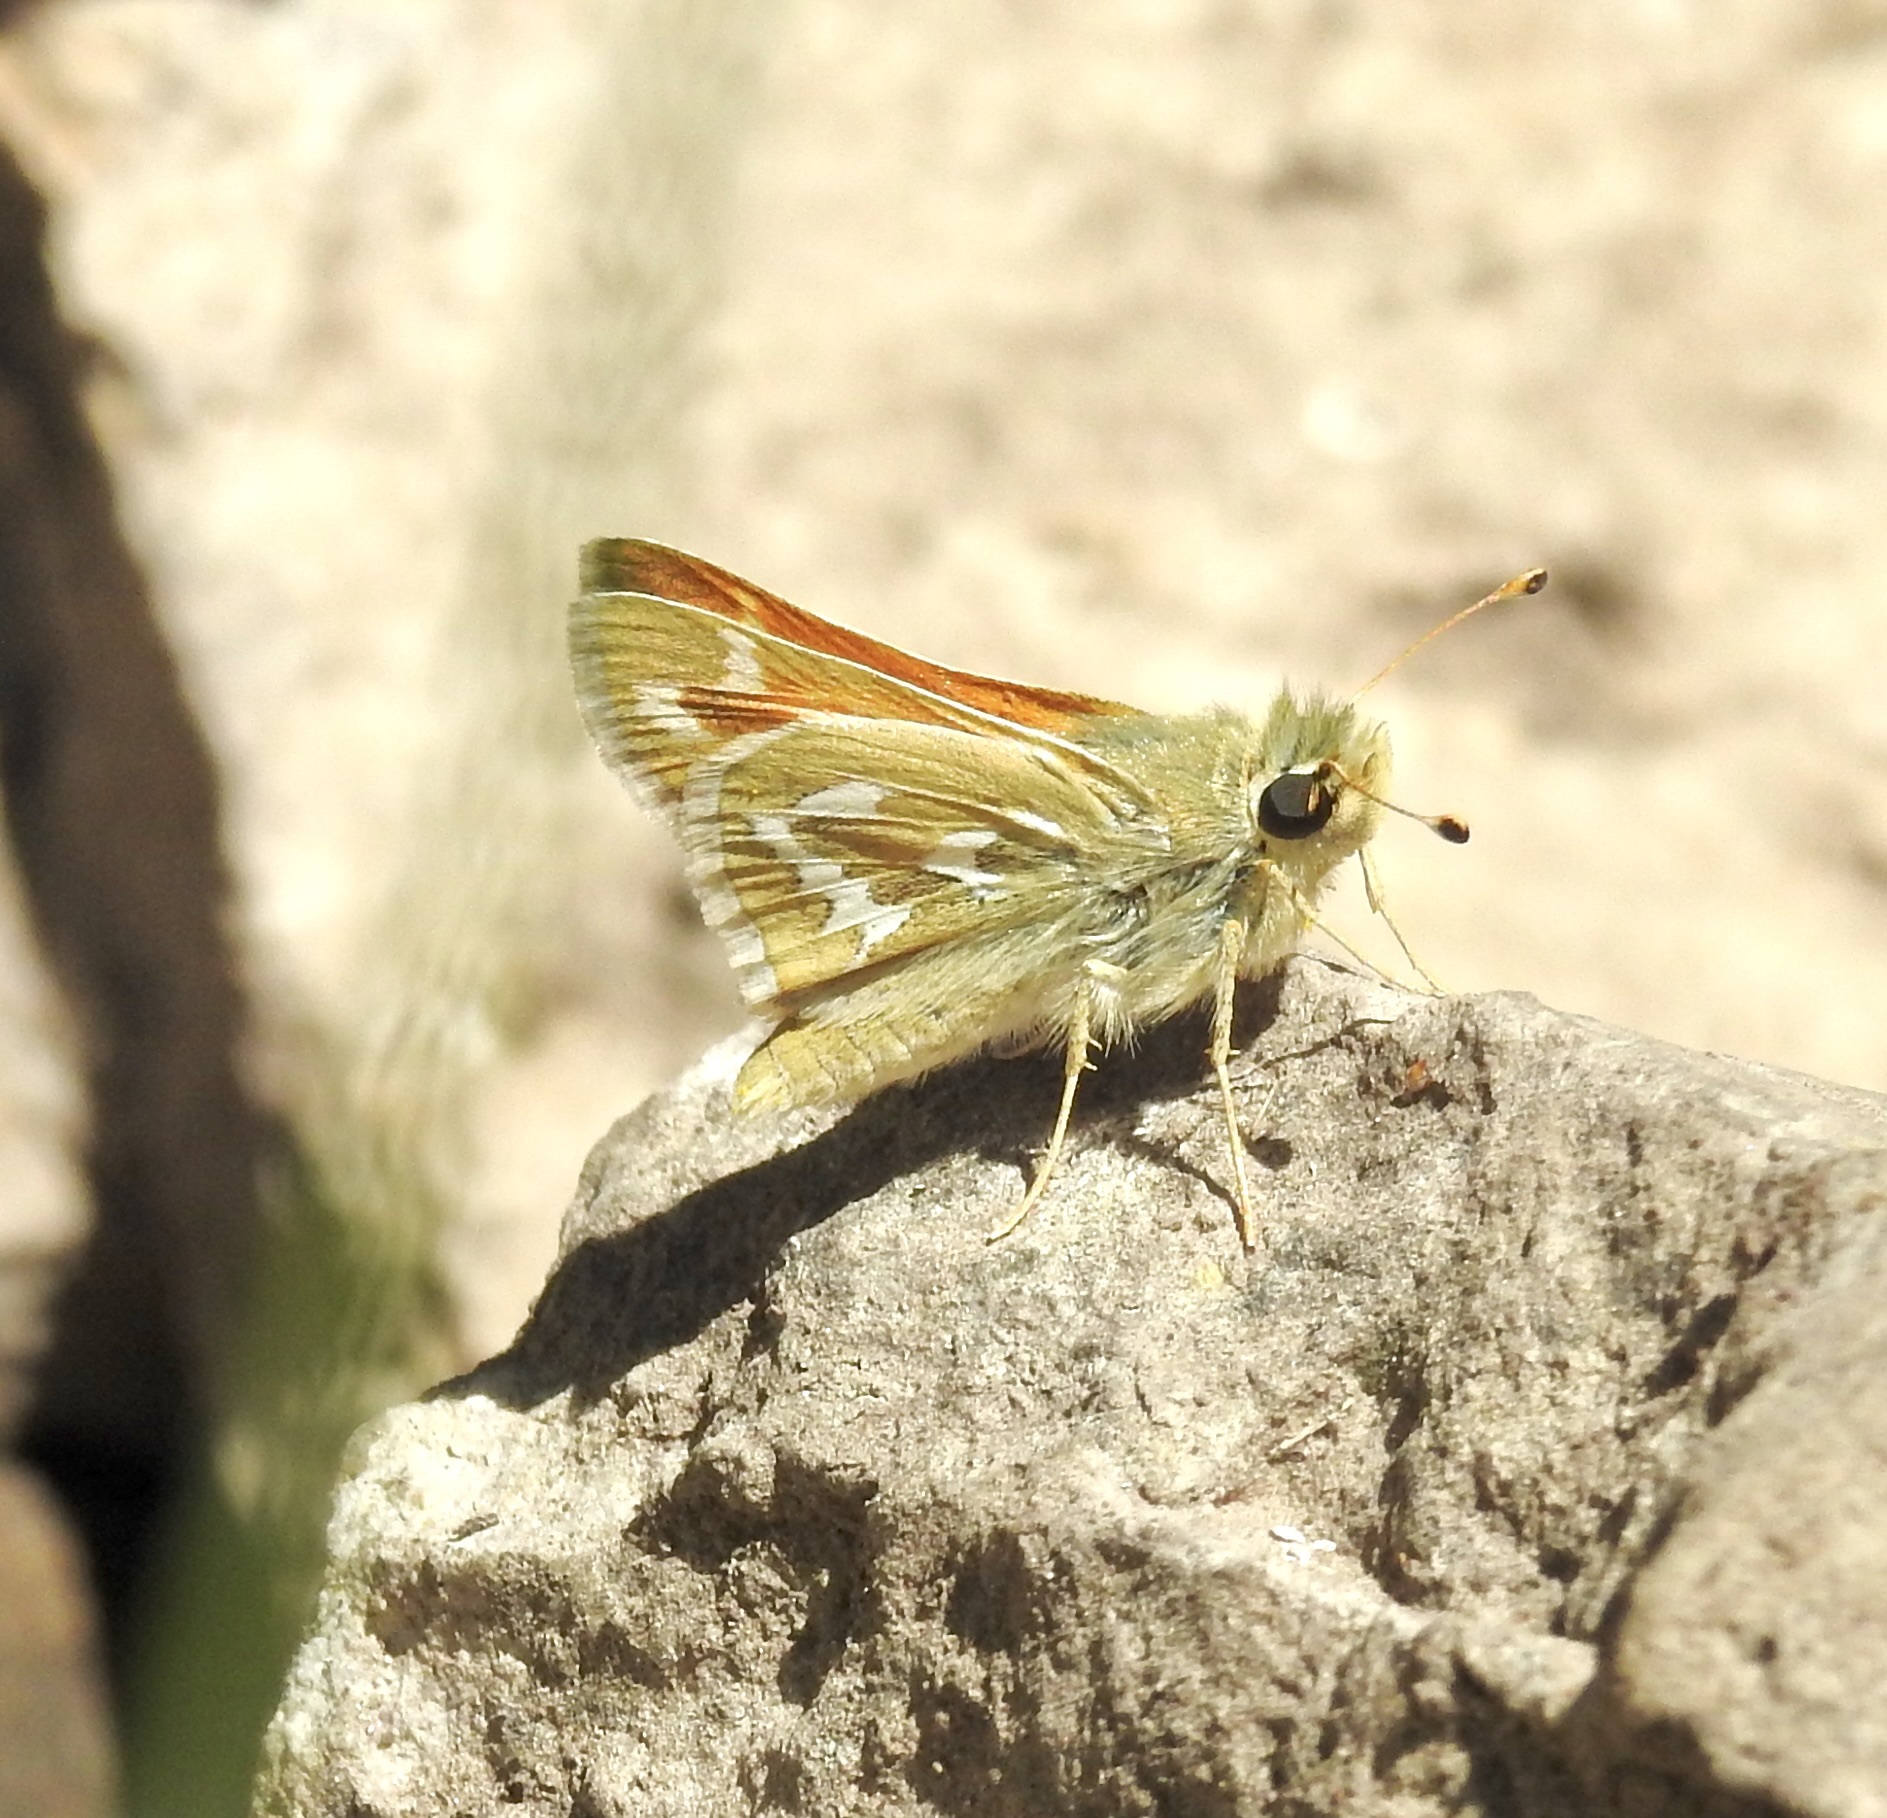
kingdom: Animalia
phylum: Arthropoda
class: Insecta
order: Lepidoptera
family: Hesperiidae
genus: Hesperia
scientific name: Hesperia comma
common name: Common branded skipper
